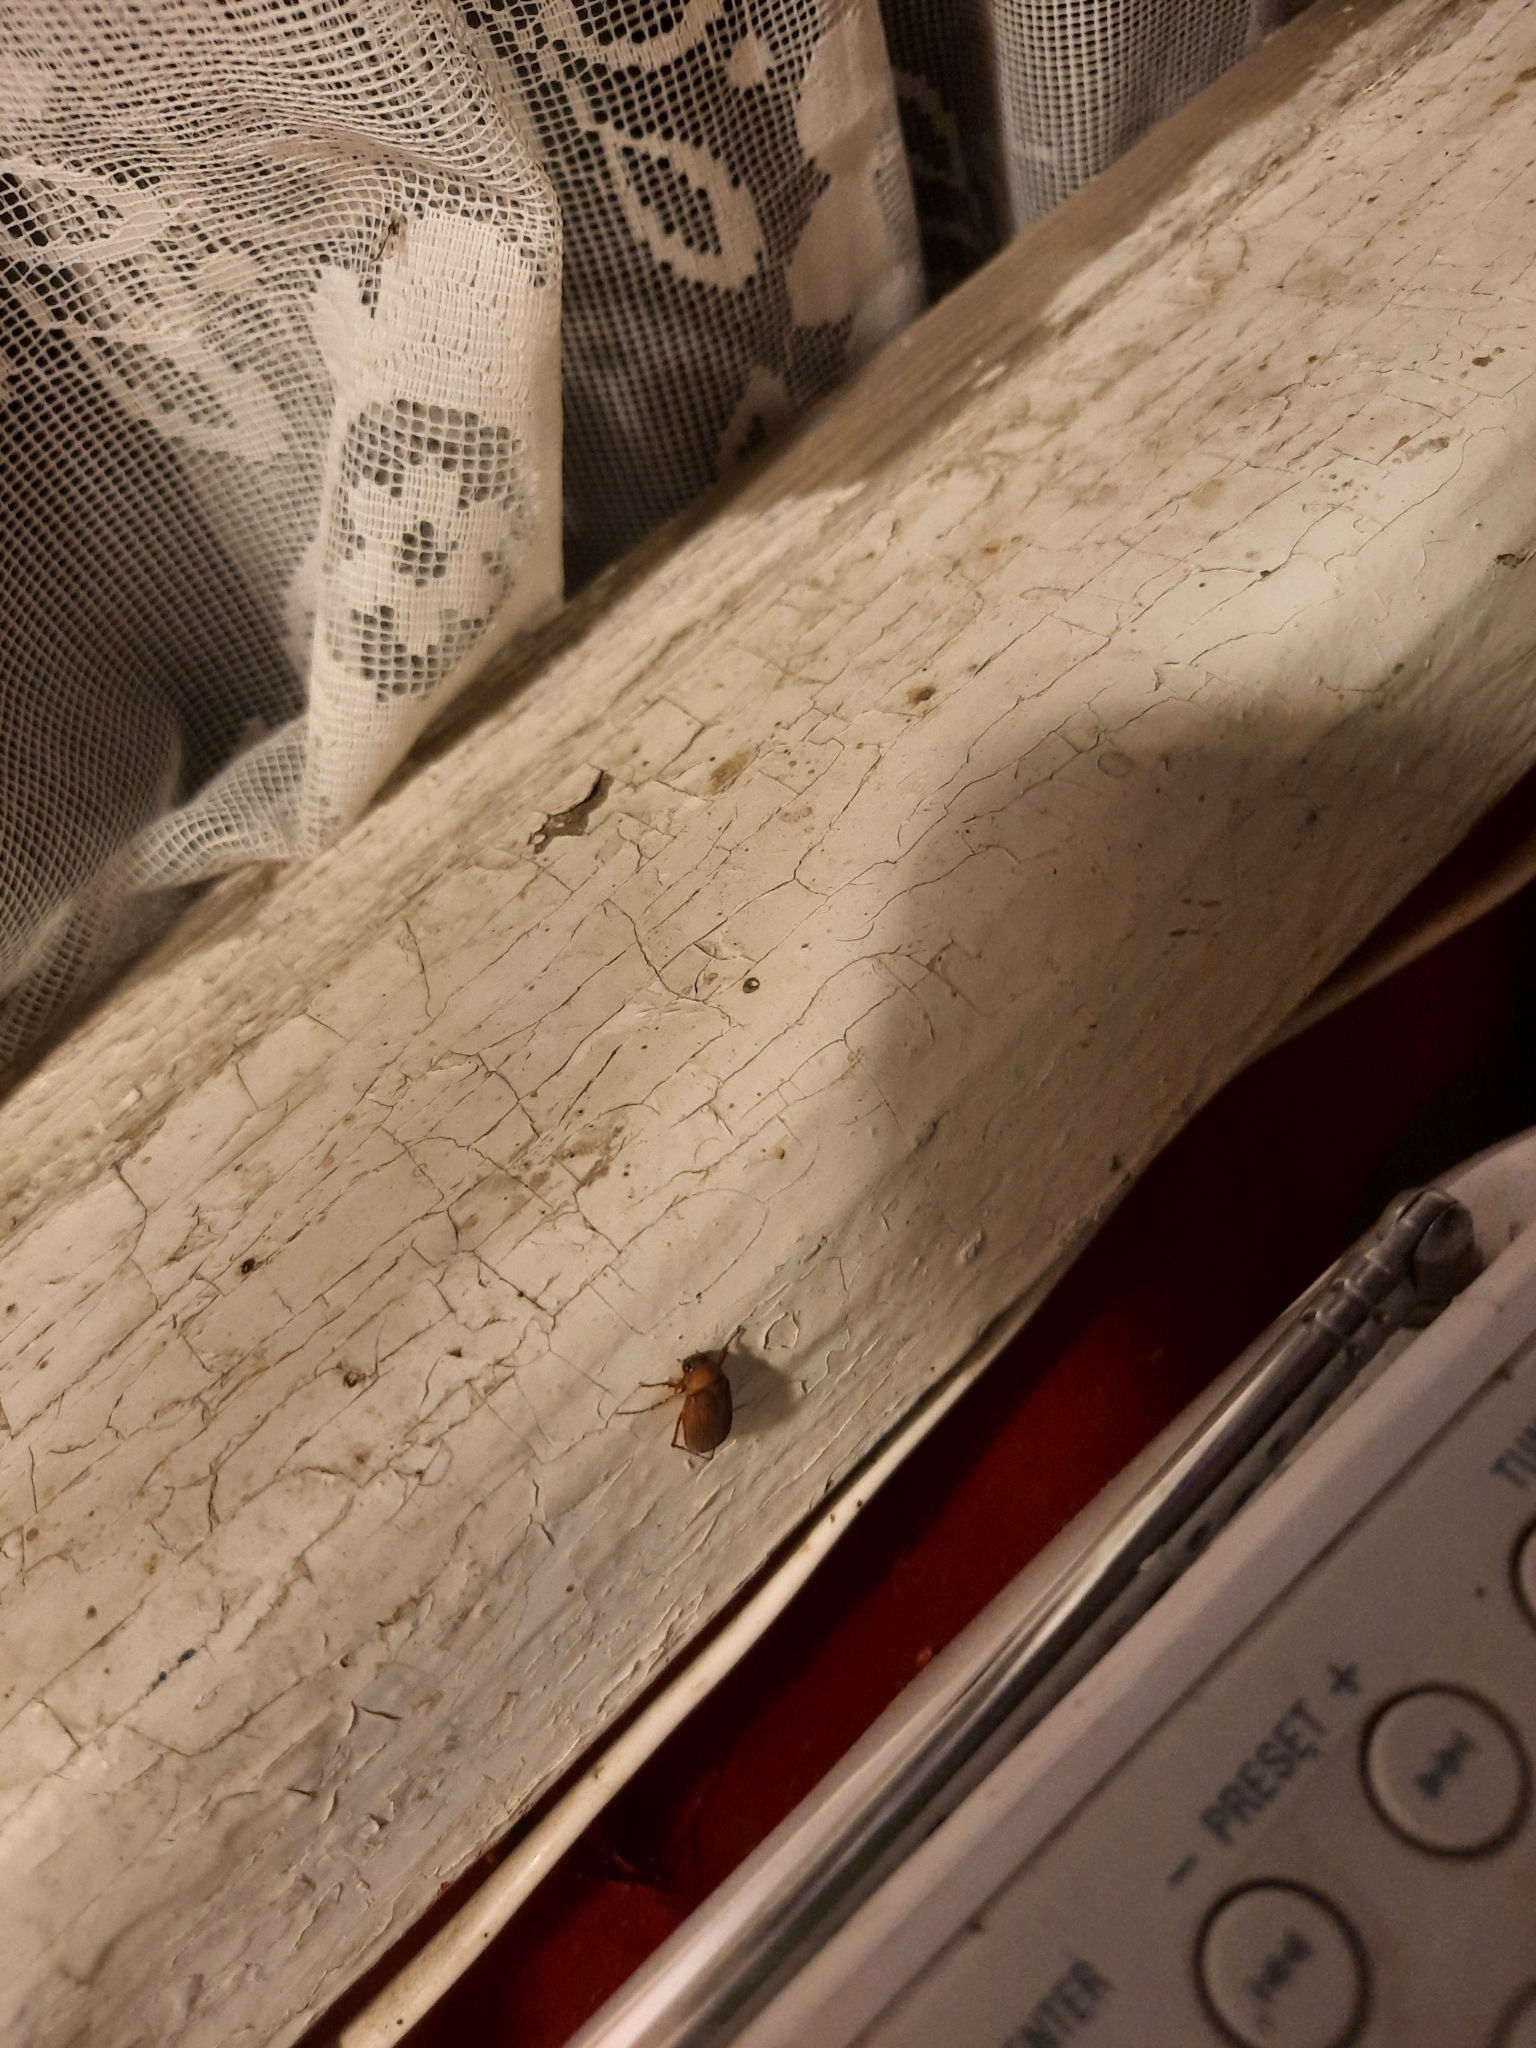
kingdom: Animalia
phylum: Arthropoda
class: Insecta
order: Coleoptera
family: Scarabaeidae
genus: Serica
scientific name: Serica brunnea
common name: Brown chafer
